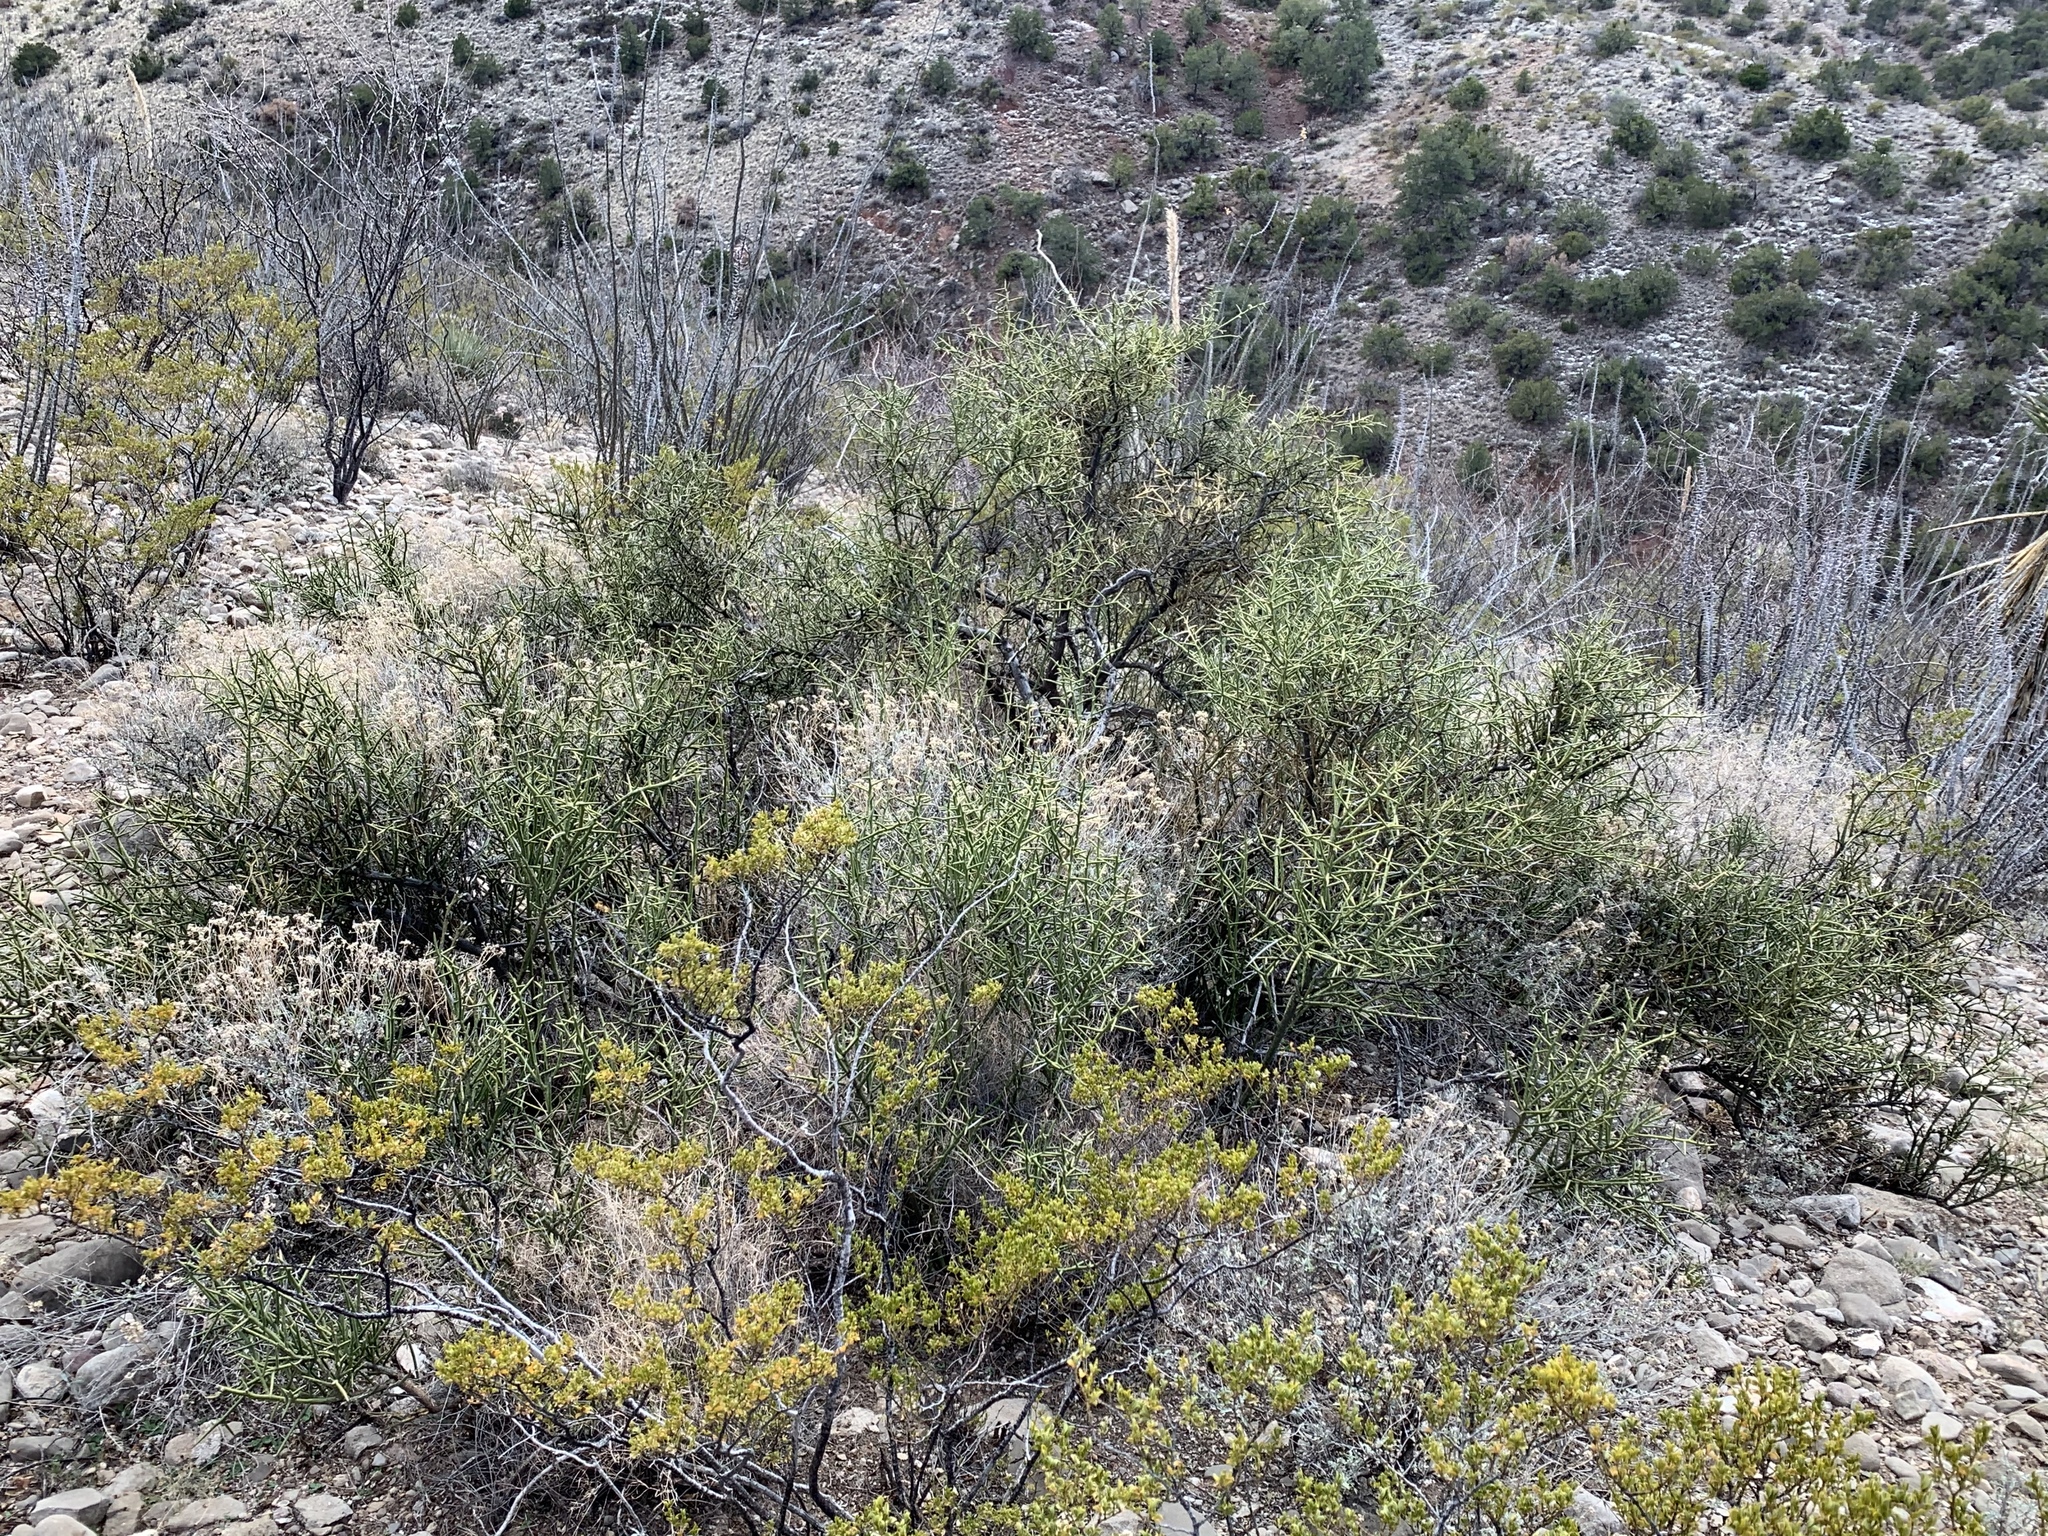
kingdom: Plantae
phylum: Tracheophyta
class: Magnoliopsida
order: Brassicales
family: Koeberliniaceae
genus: Koeberlinia
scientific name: Koeberlinia spinosa
